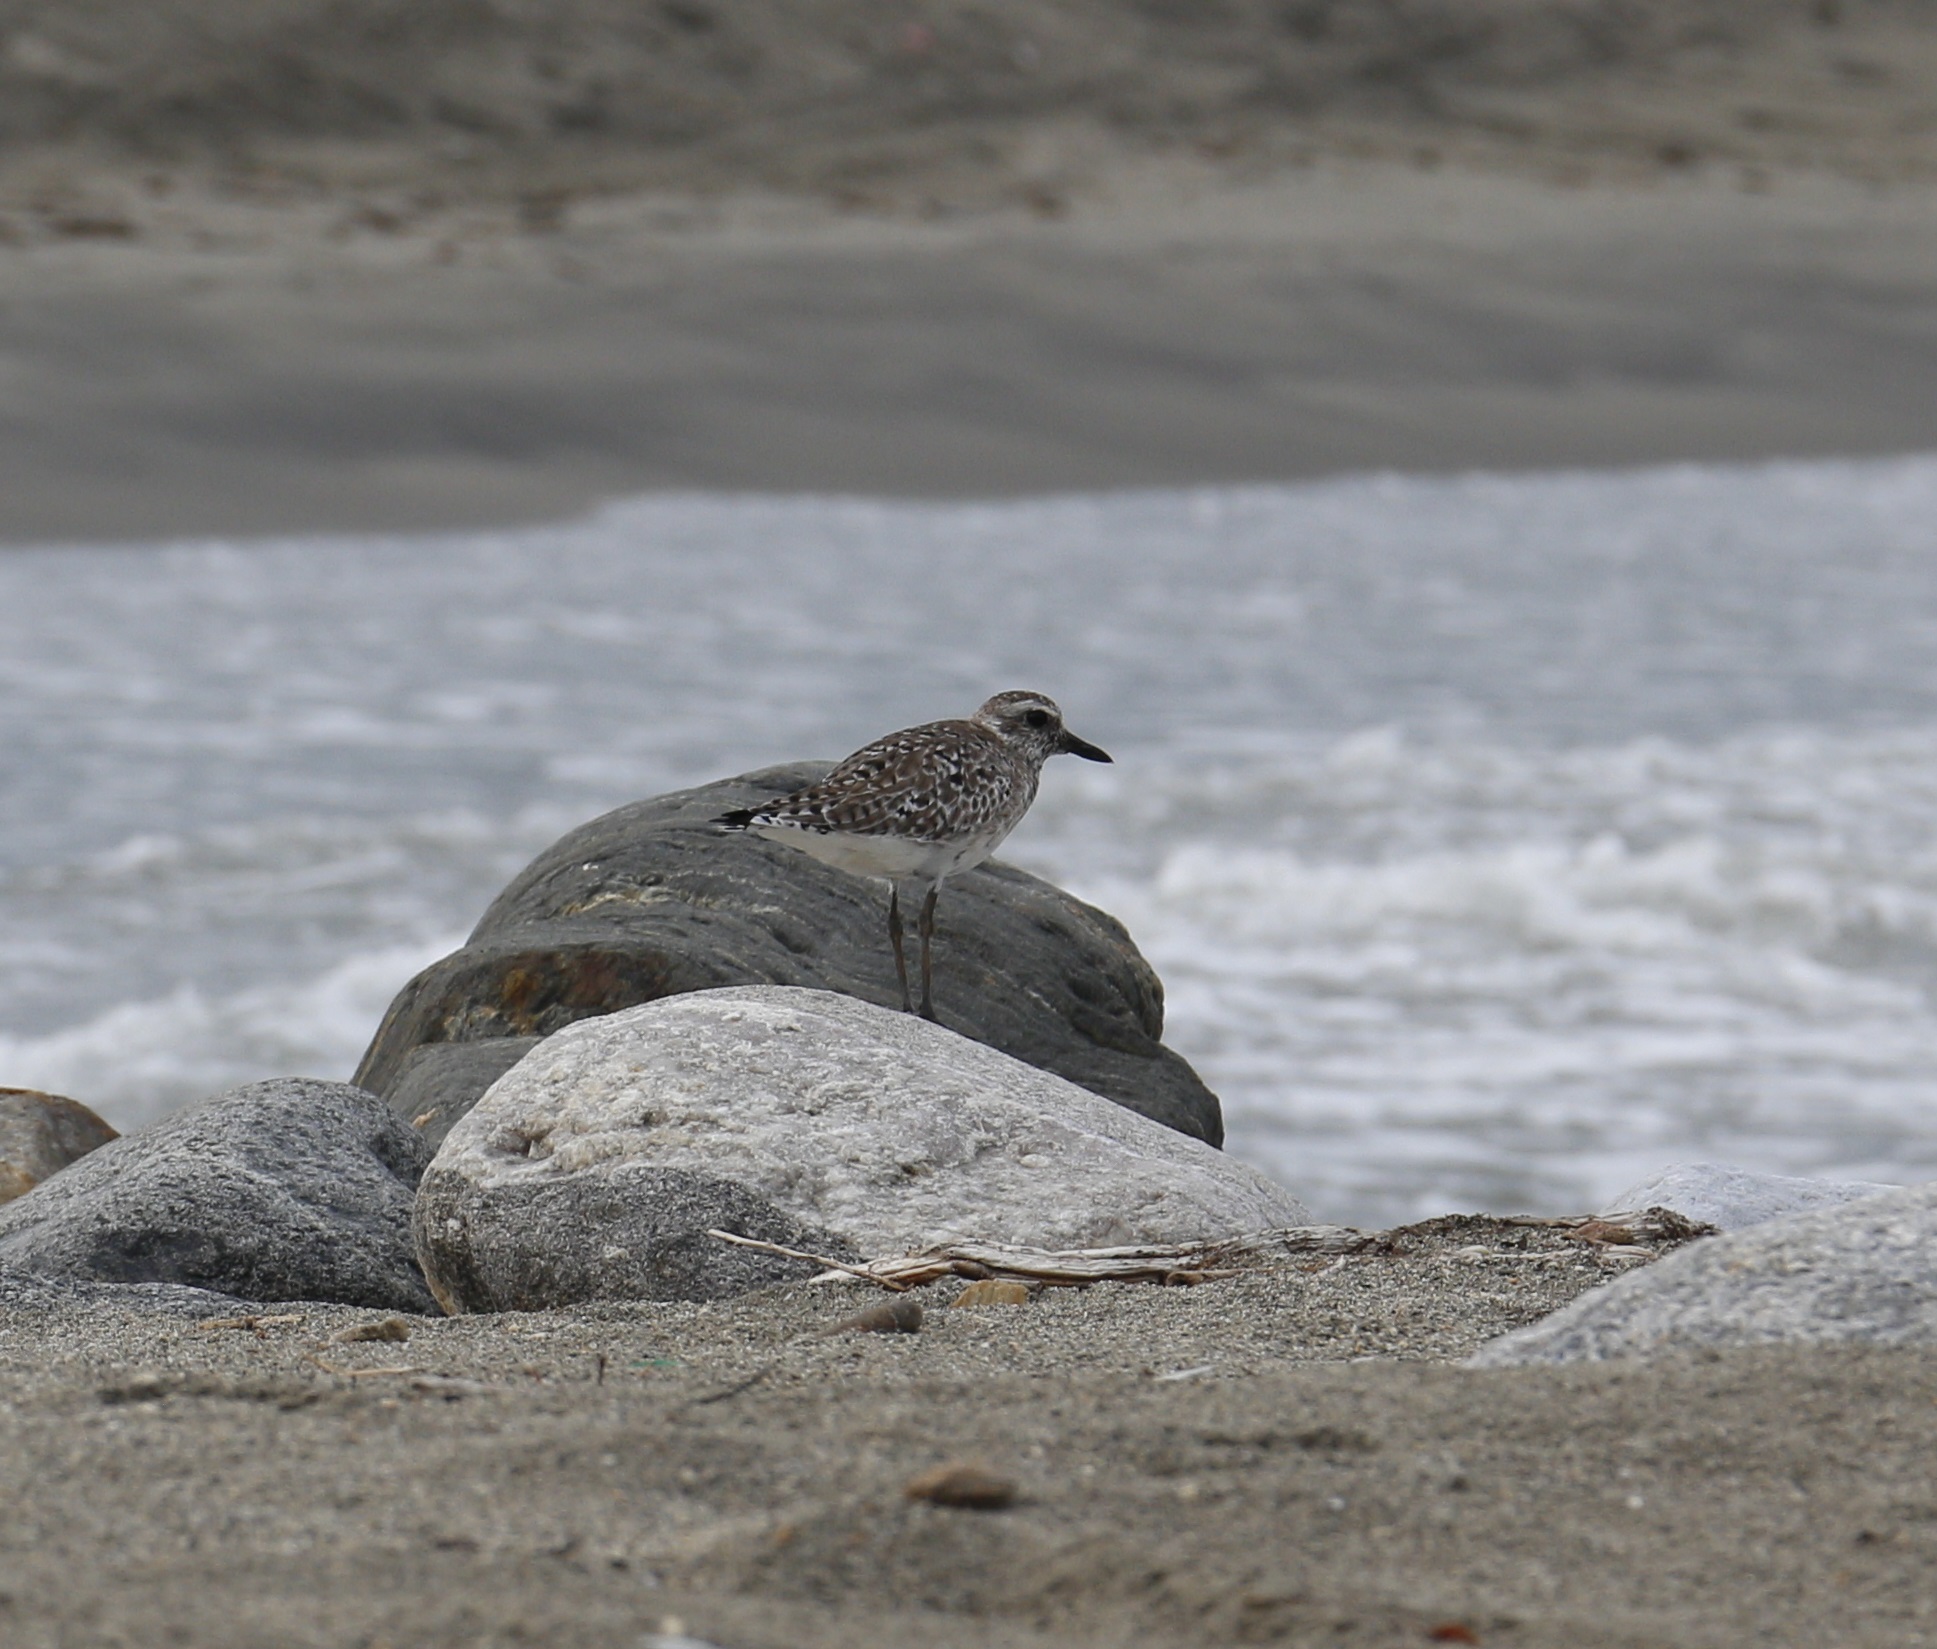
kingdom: Animalia
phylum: Chordata
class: Aves
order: Charadriiformes
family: Charadriidae
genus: Pluvialis
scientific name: Pluvialis squatarola
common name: Grey plover
